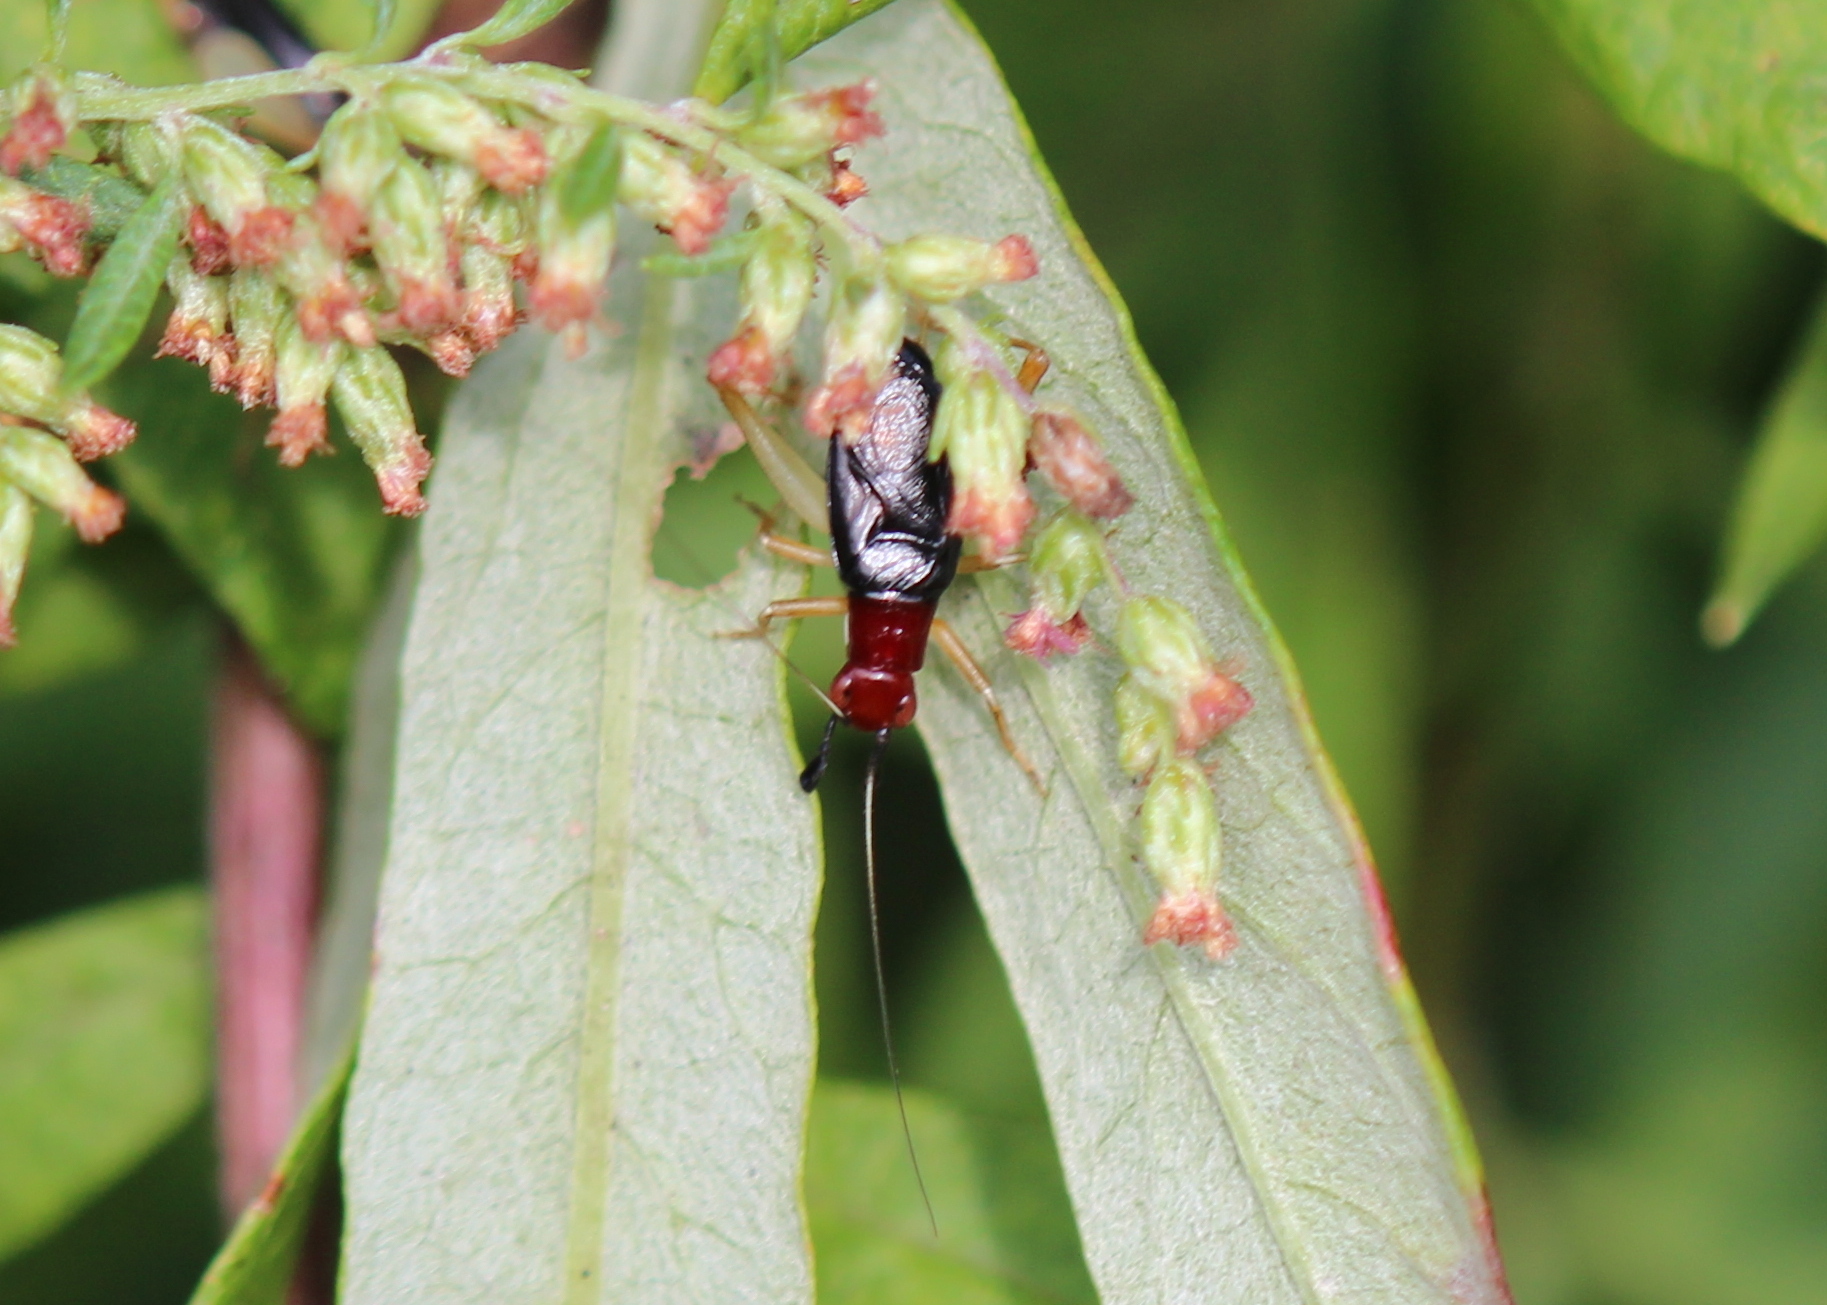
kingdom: Animalia
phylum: Arthropoda
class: Insecta
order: Orthoptera
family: Trigonidiidae
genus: Phyllopalpus
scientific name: Phyllopalpus pulchellus
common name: Handsome trig
